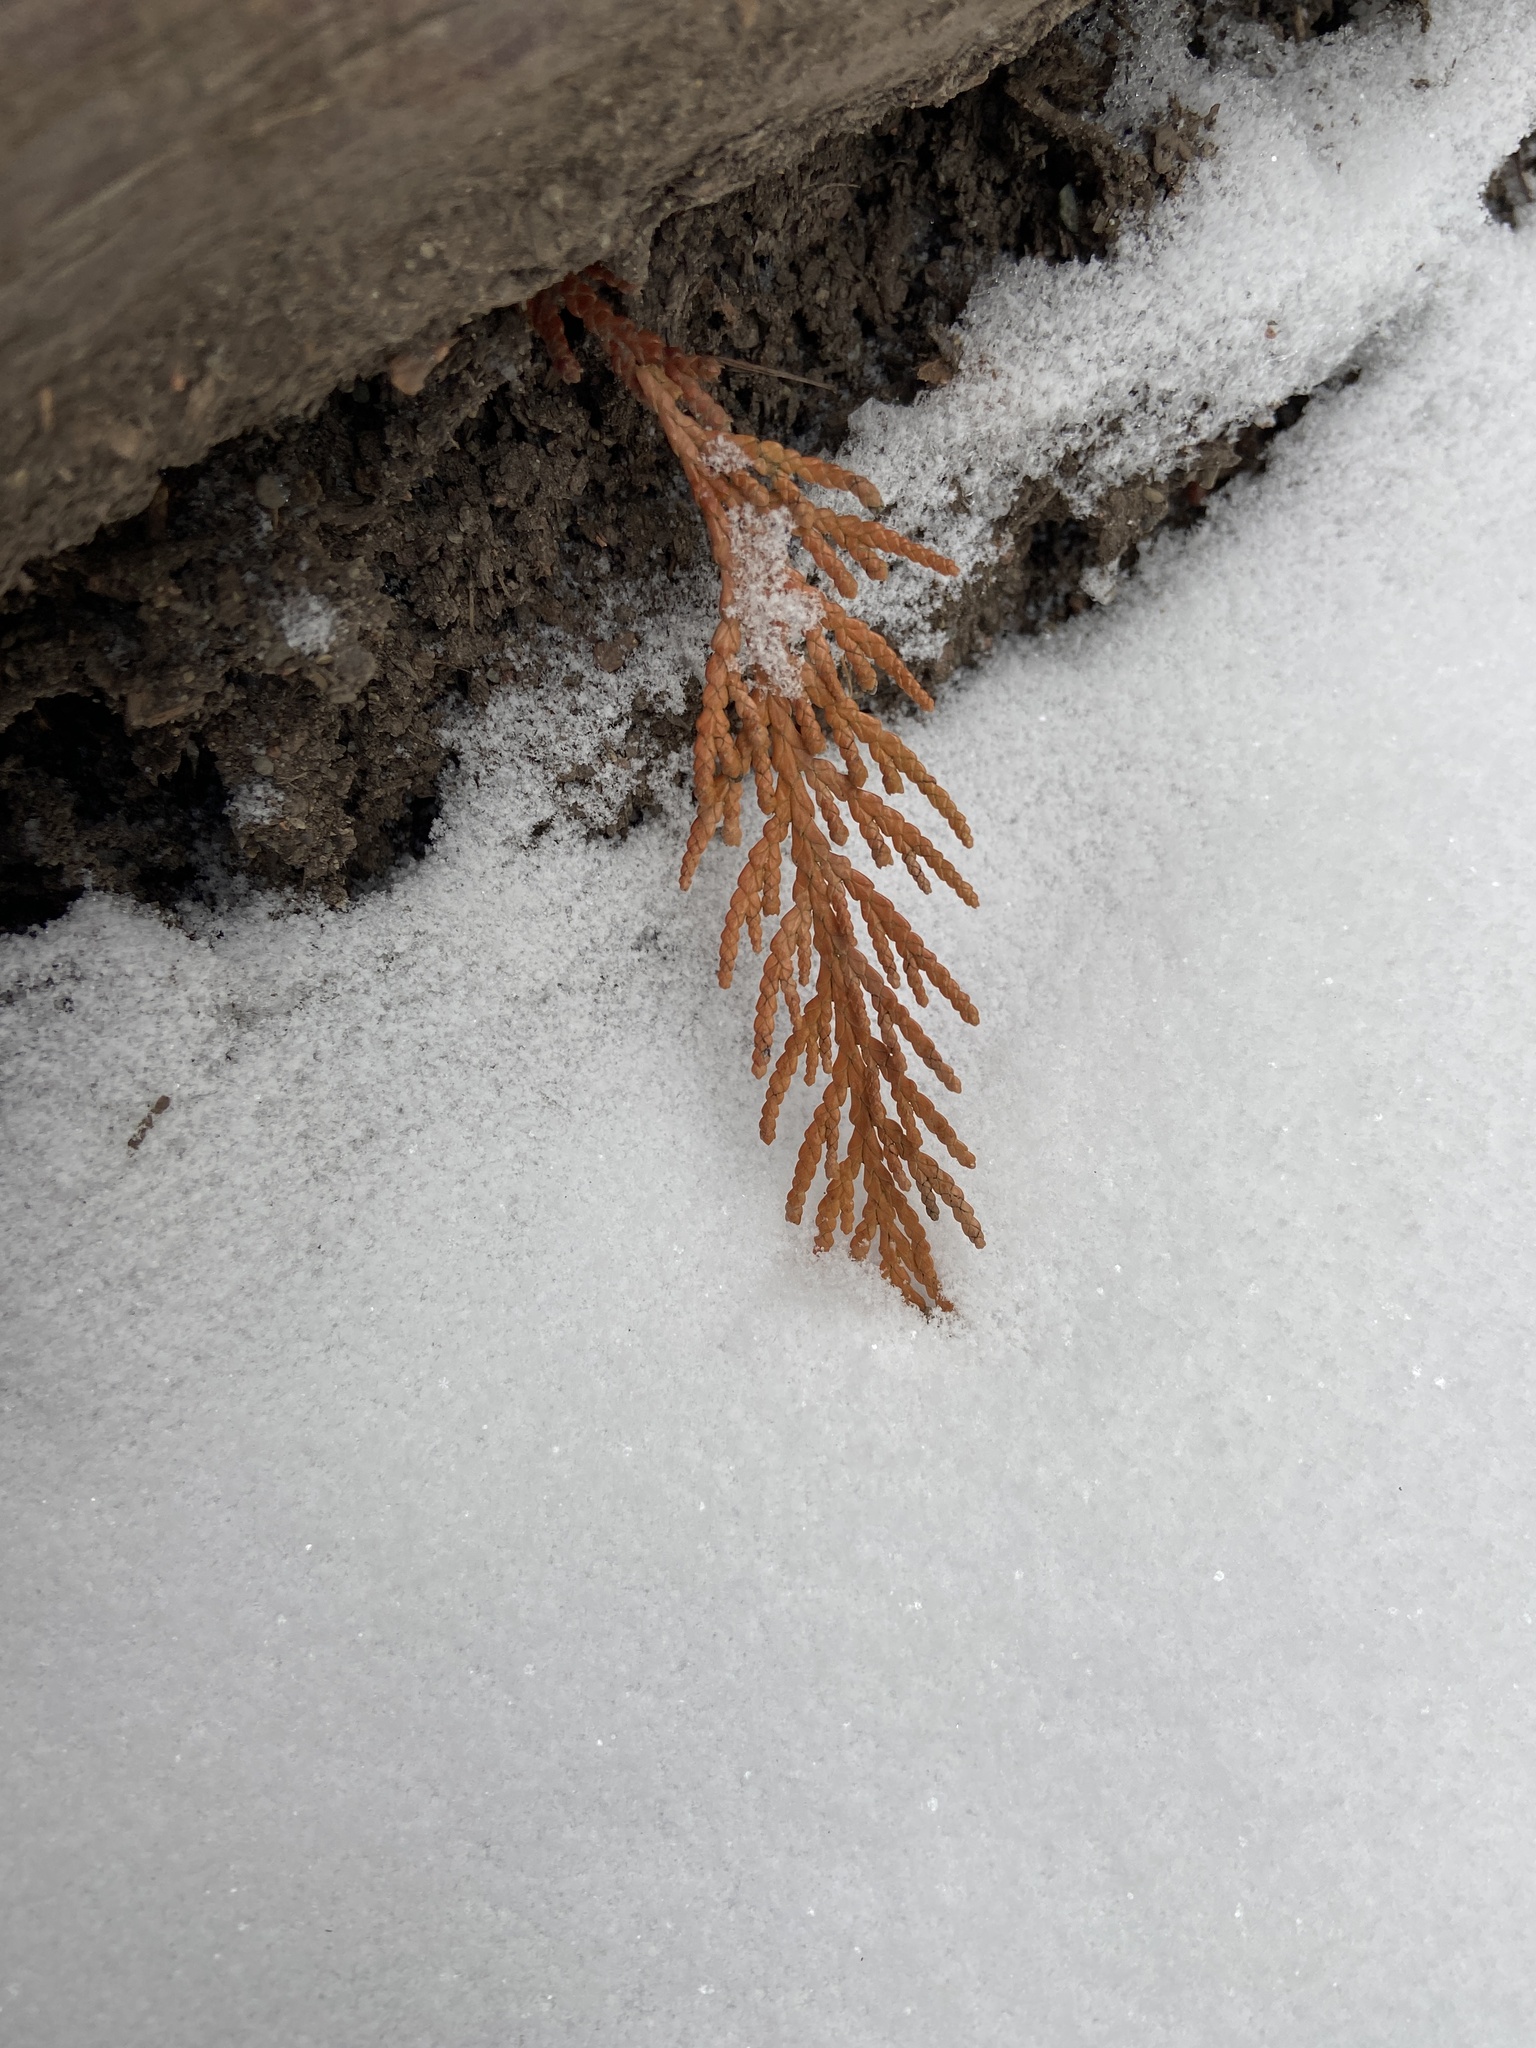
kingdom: Plantae
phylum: Tracheophyta
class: Pinopsida
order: Pinales
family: Cupressaceae
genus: Thuja
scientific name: Thuja plicata
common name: Western red-cedar
